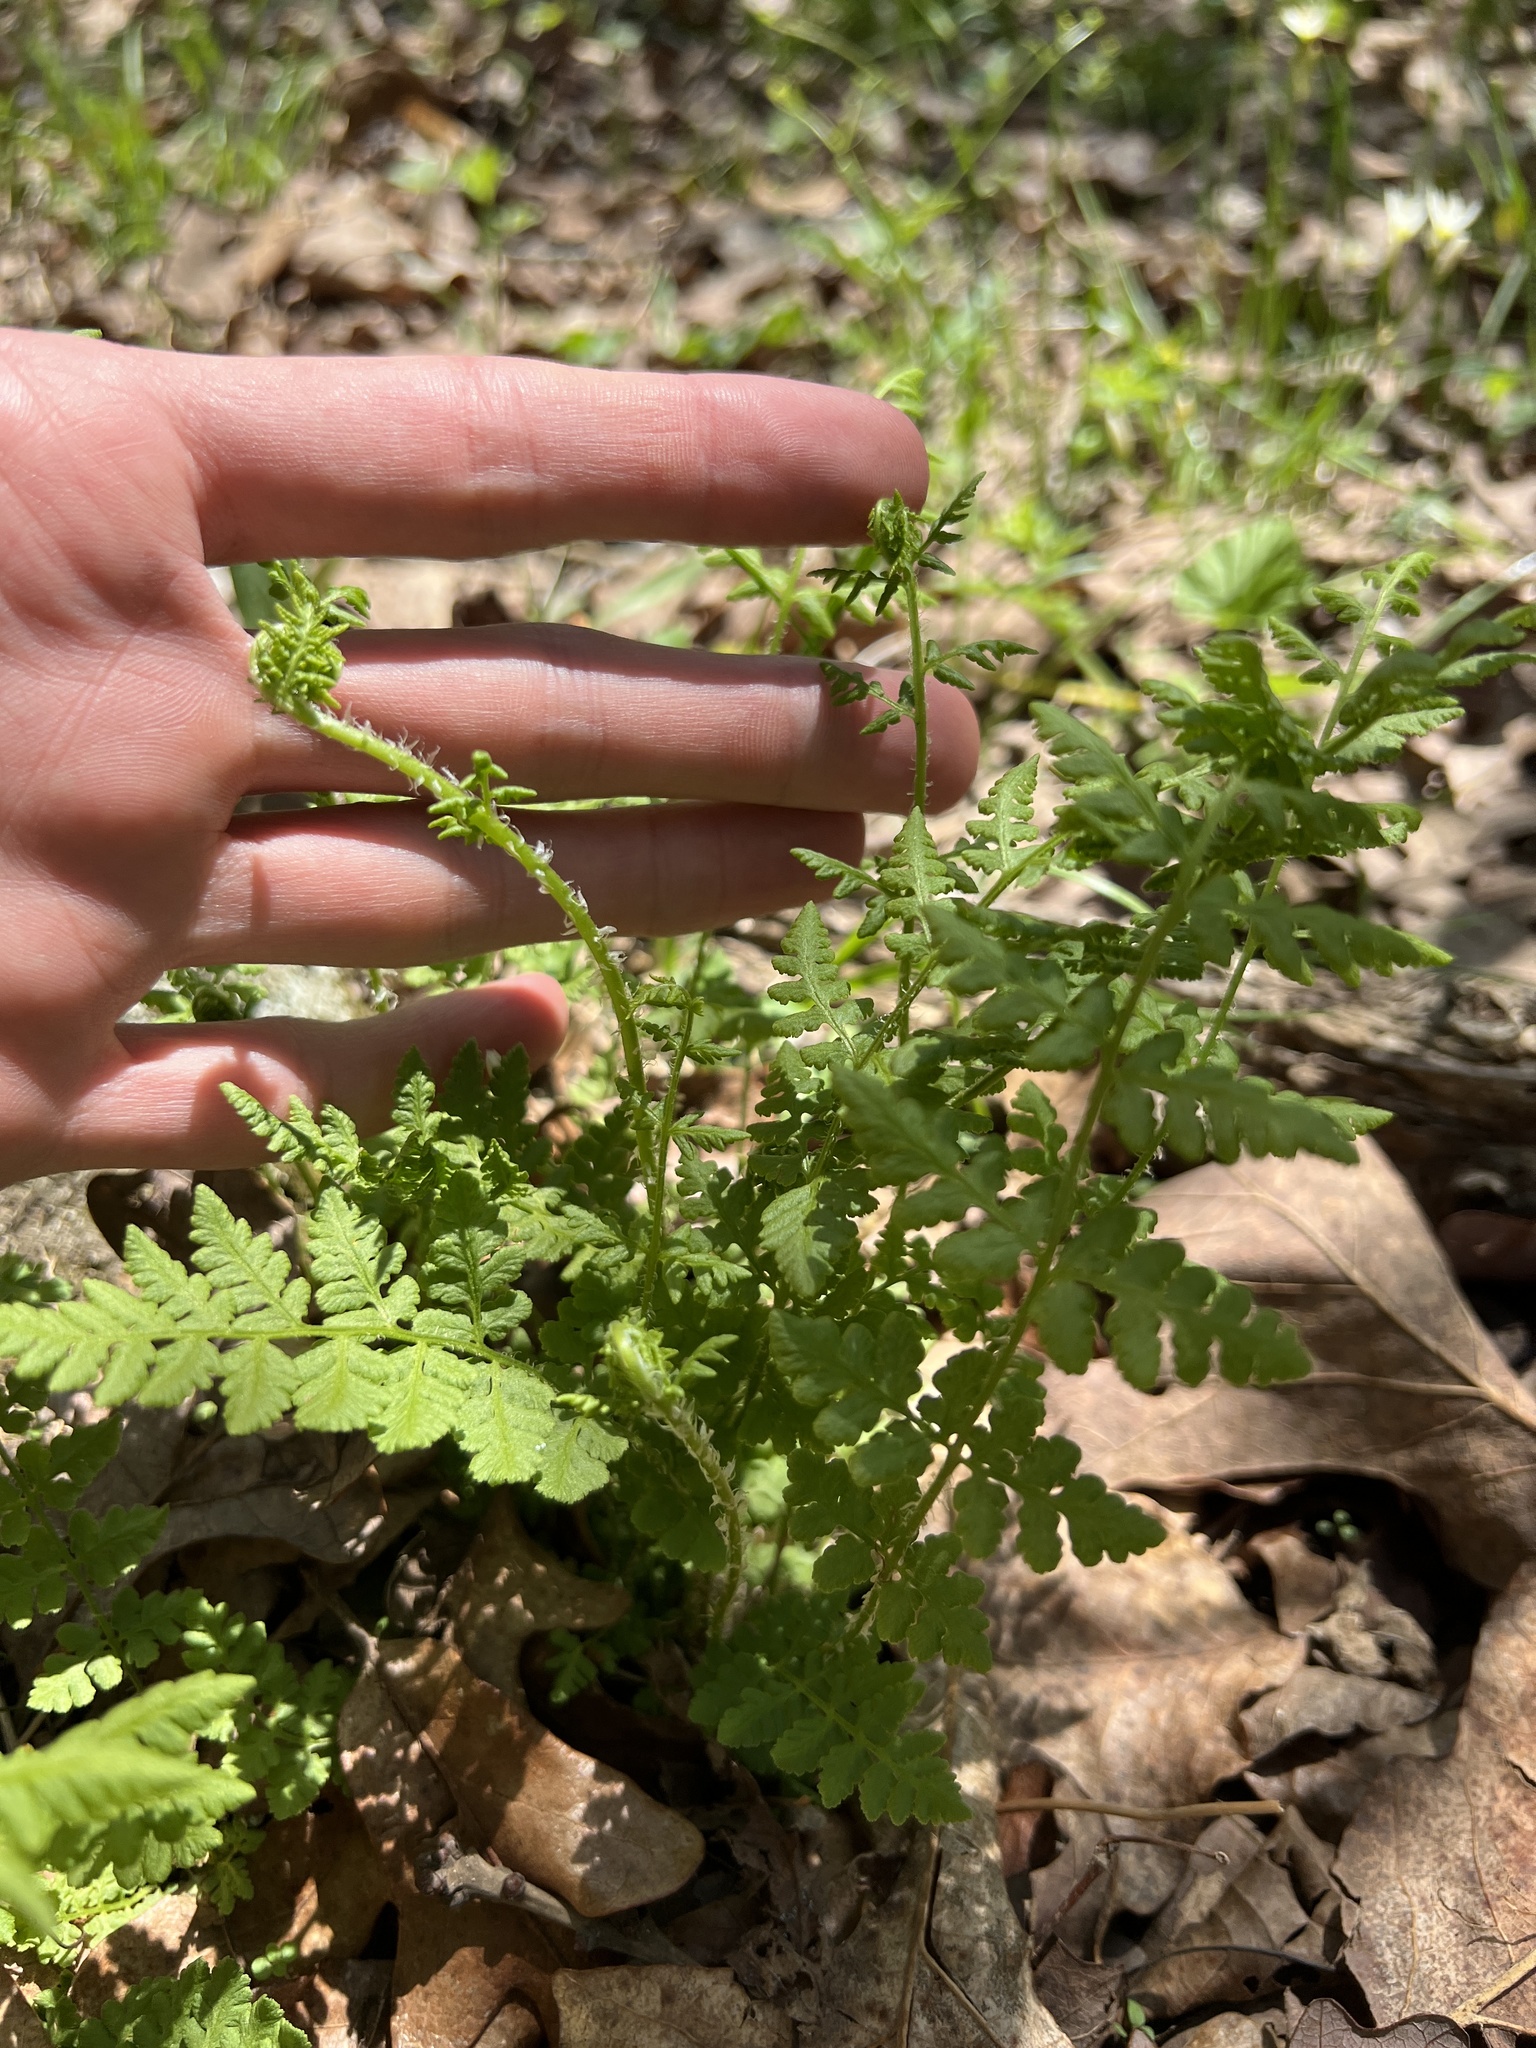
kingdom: Plantae
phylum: Tracheophyta
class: Polypodiopsida
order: Polypodiales
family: Woodsiaceae
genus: Physematium
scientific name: Physematium obtusum
